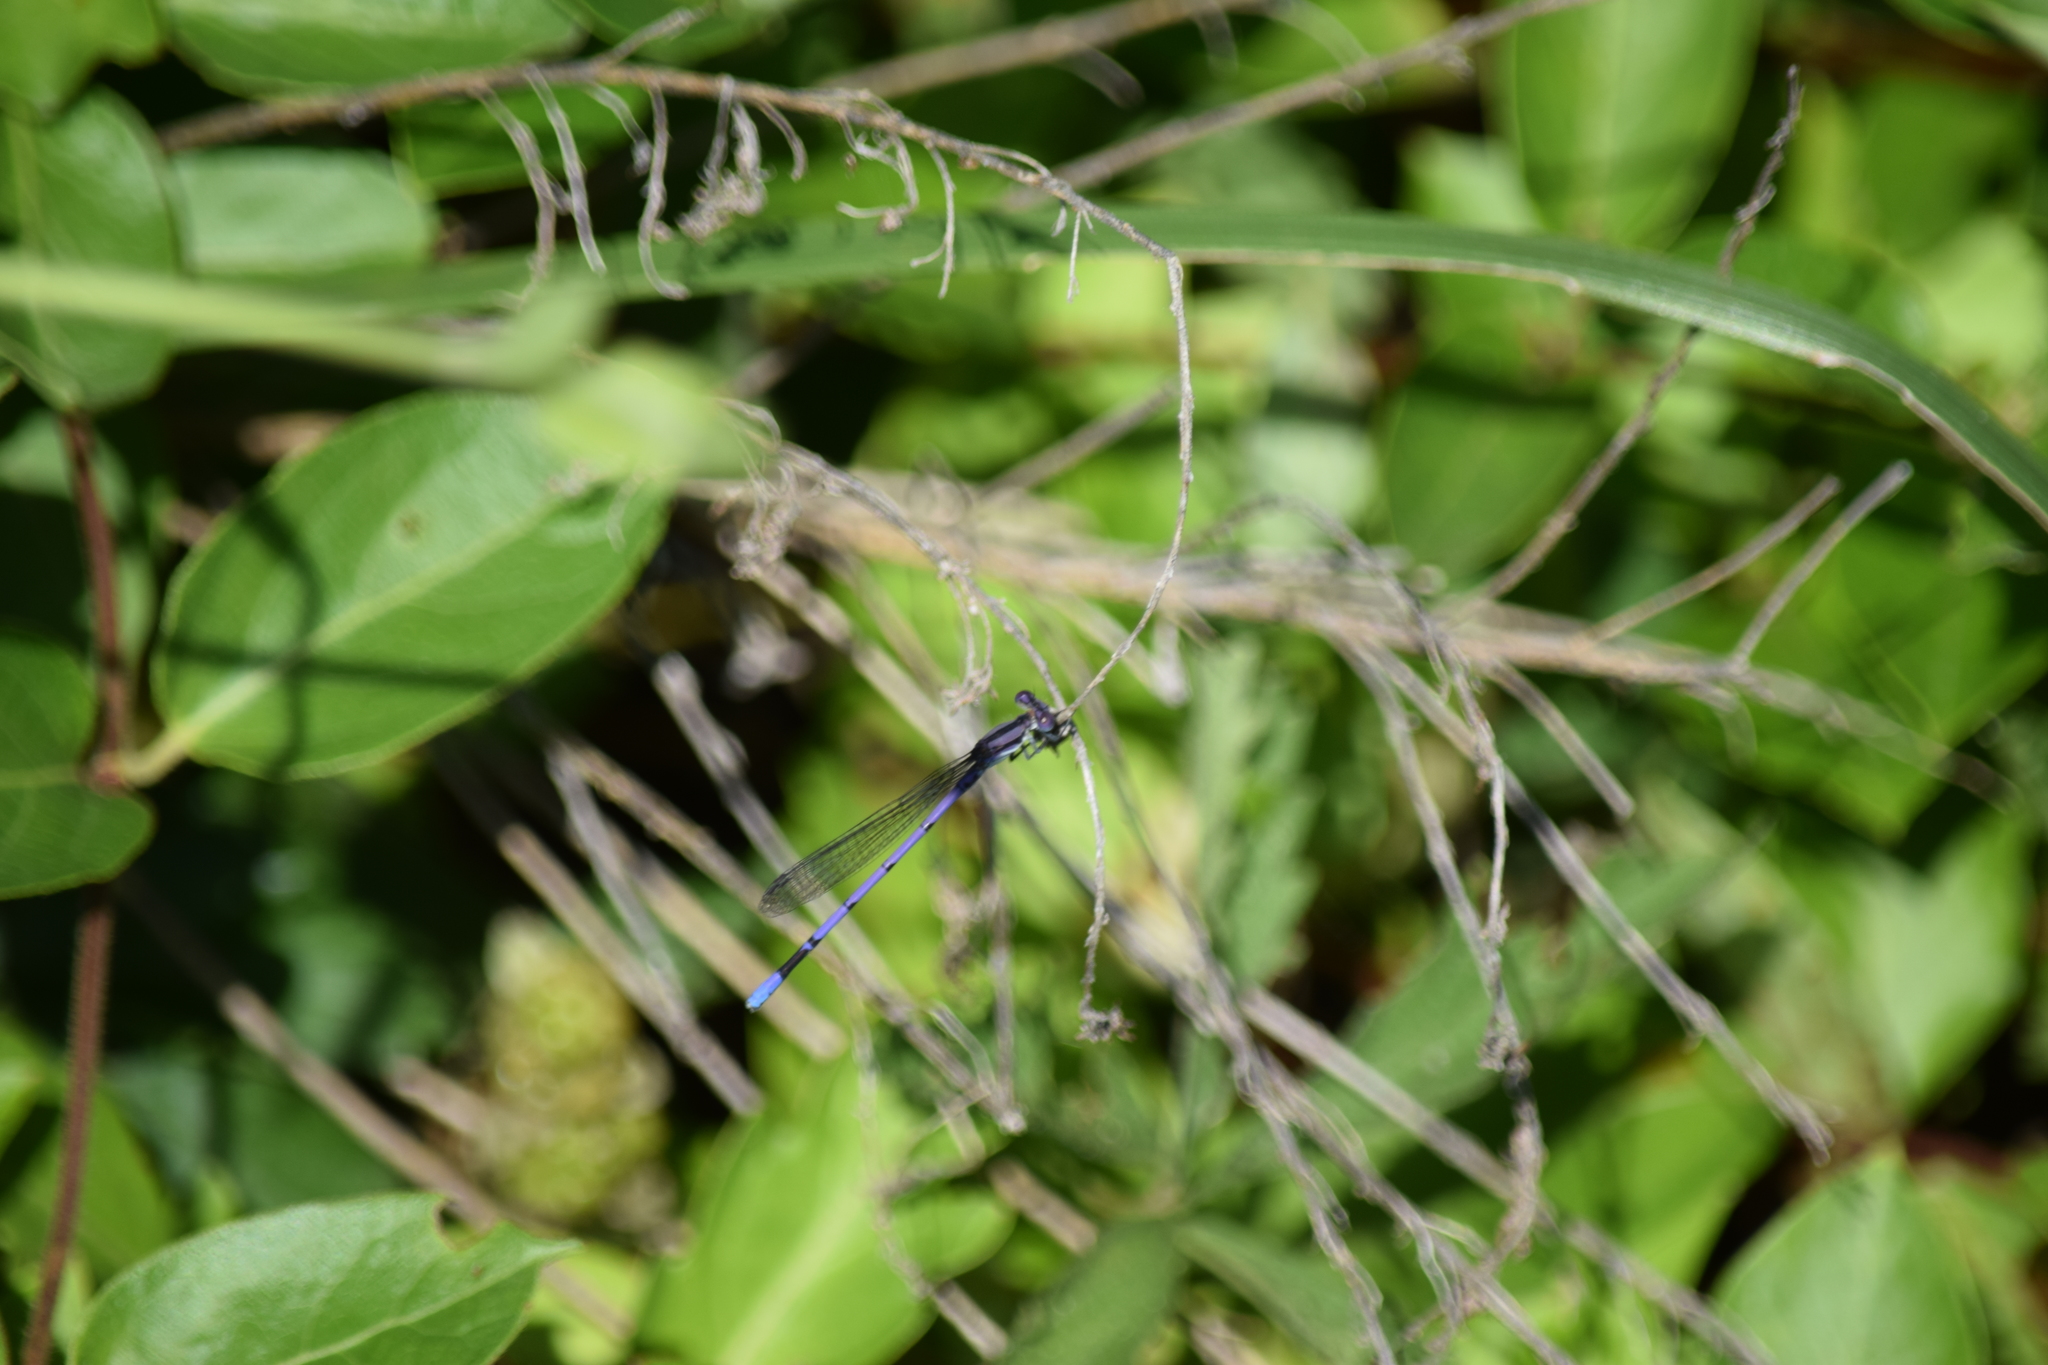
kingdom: Animalia
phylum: Arthropoda
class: Insecta
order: Odonata
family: Coenagrionidae
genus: Argia
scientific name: Argia fumipennis
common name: Variable dancer
